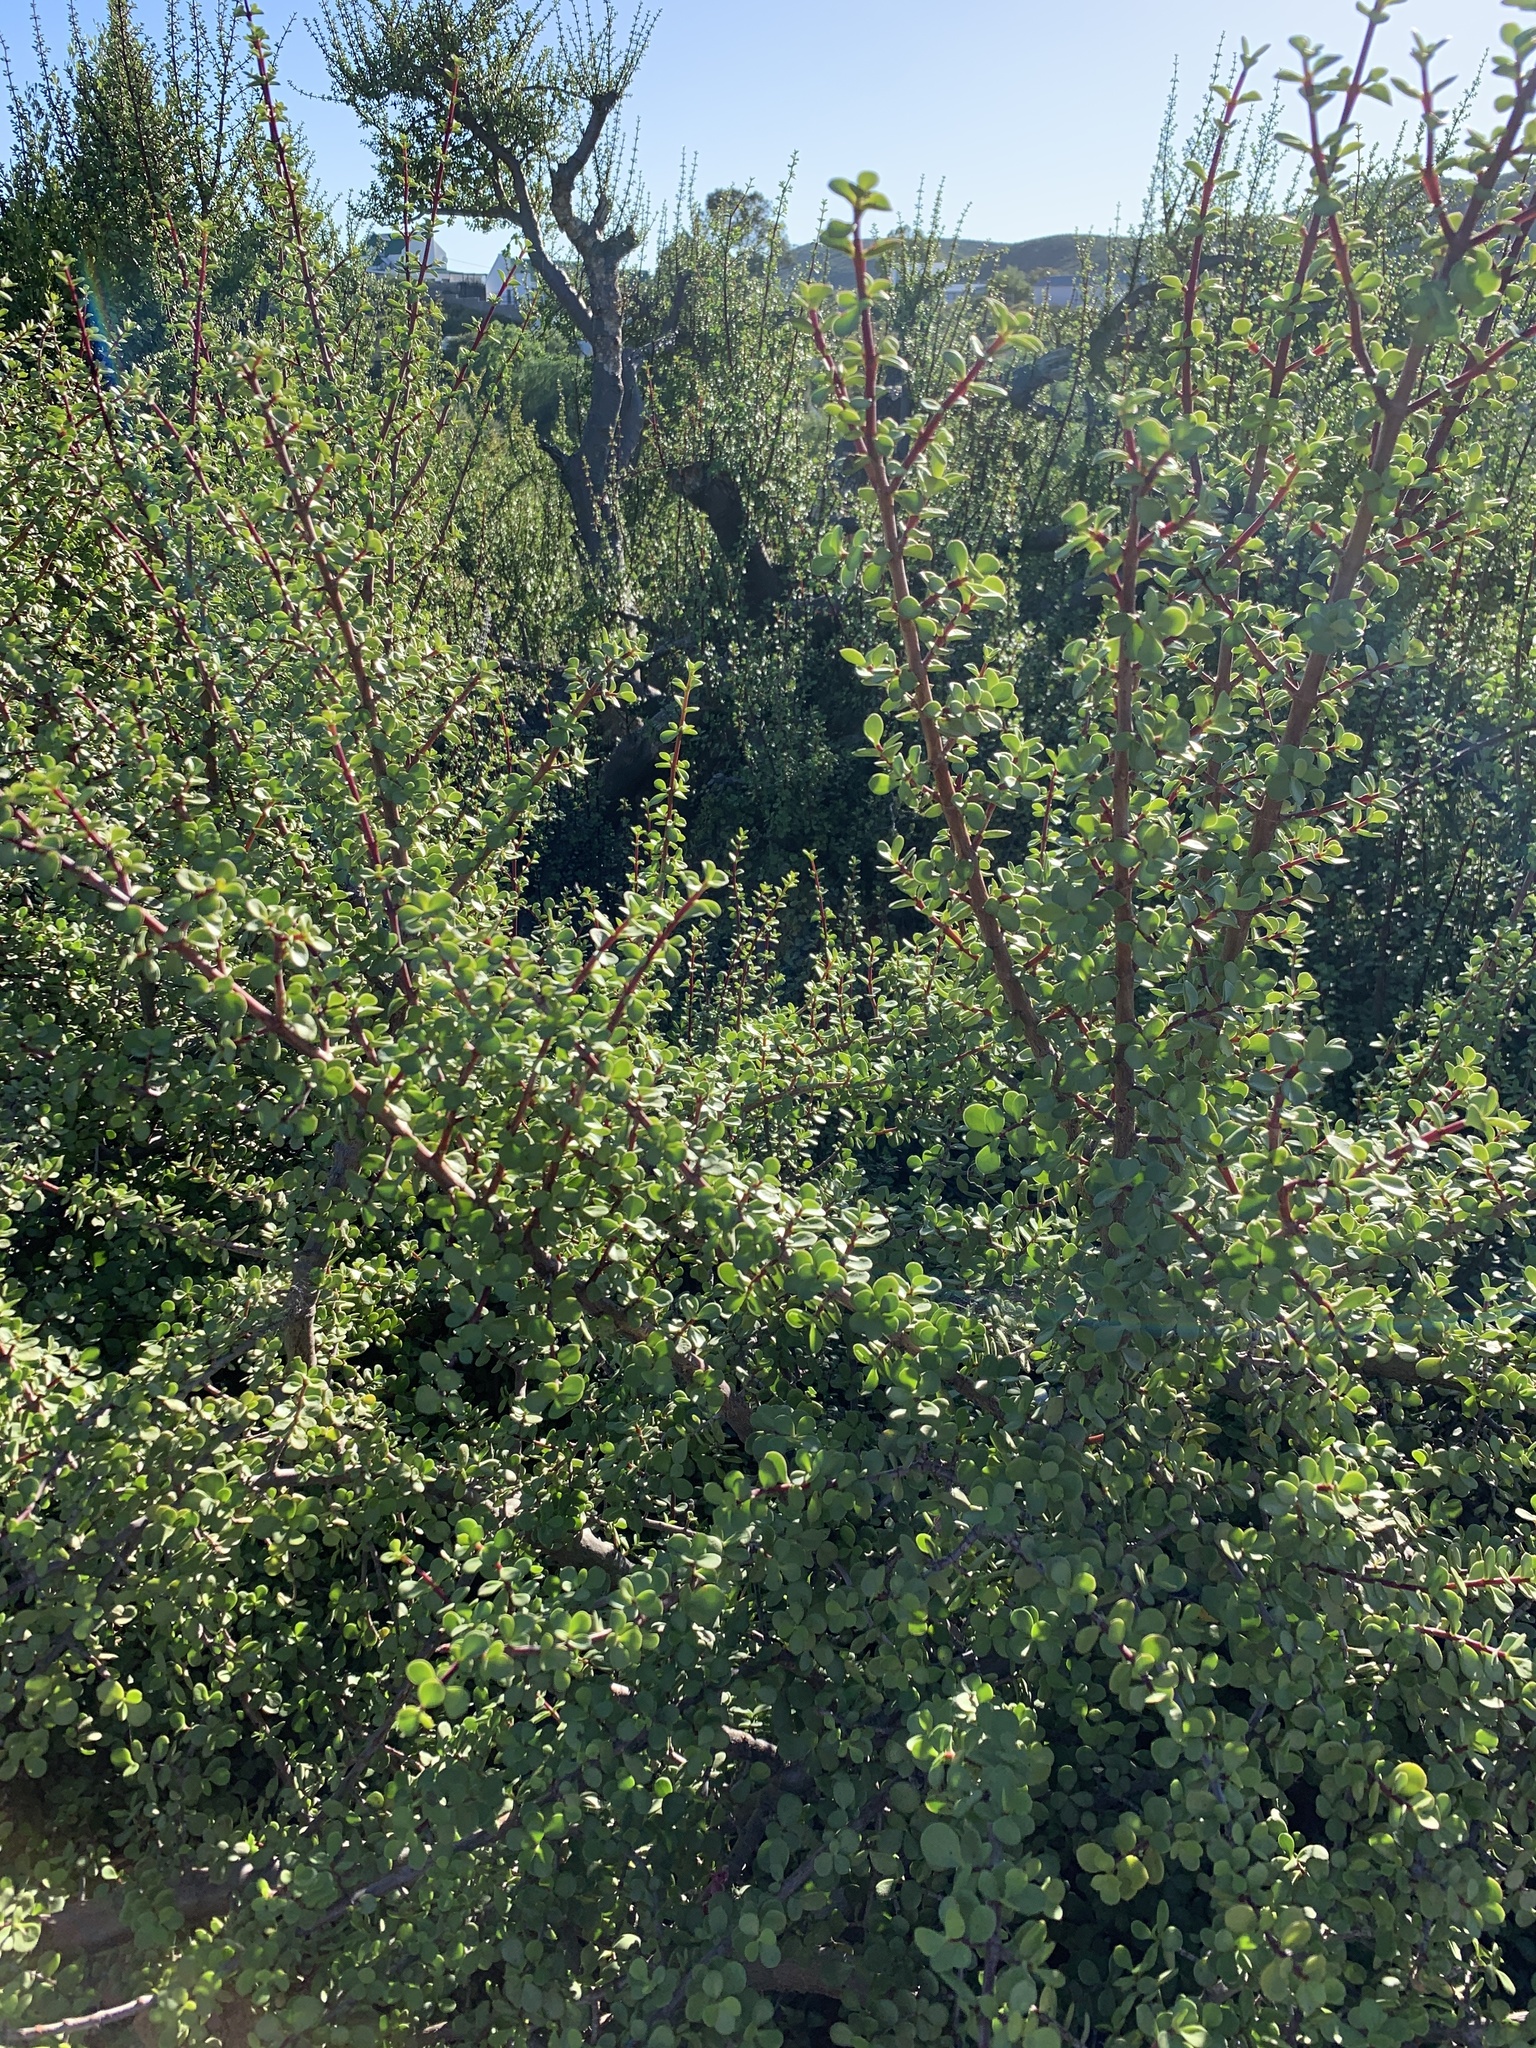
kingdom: Plantae
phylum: Tracheophyta
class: Magnoliopsida
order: Caryophyllales
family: Didiereaceae
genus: Portulacaria
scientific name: Portulacaria afra
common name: Elephant-bush
